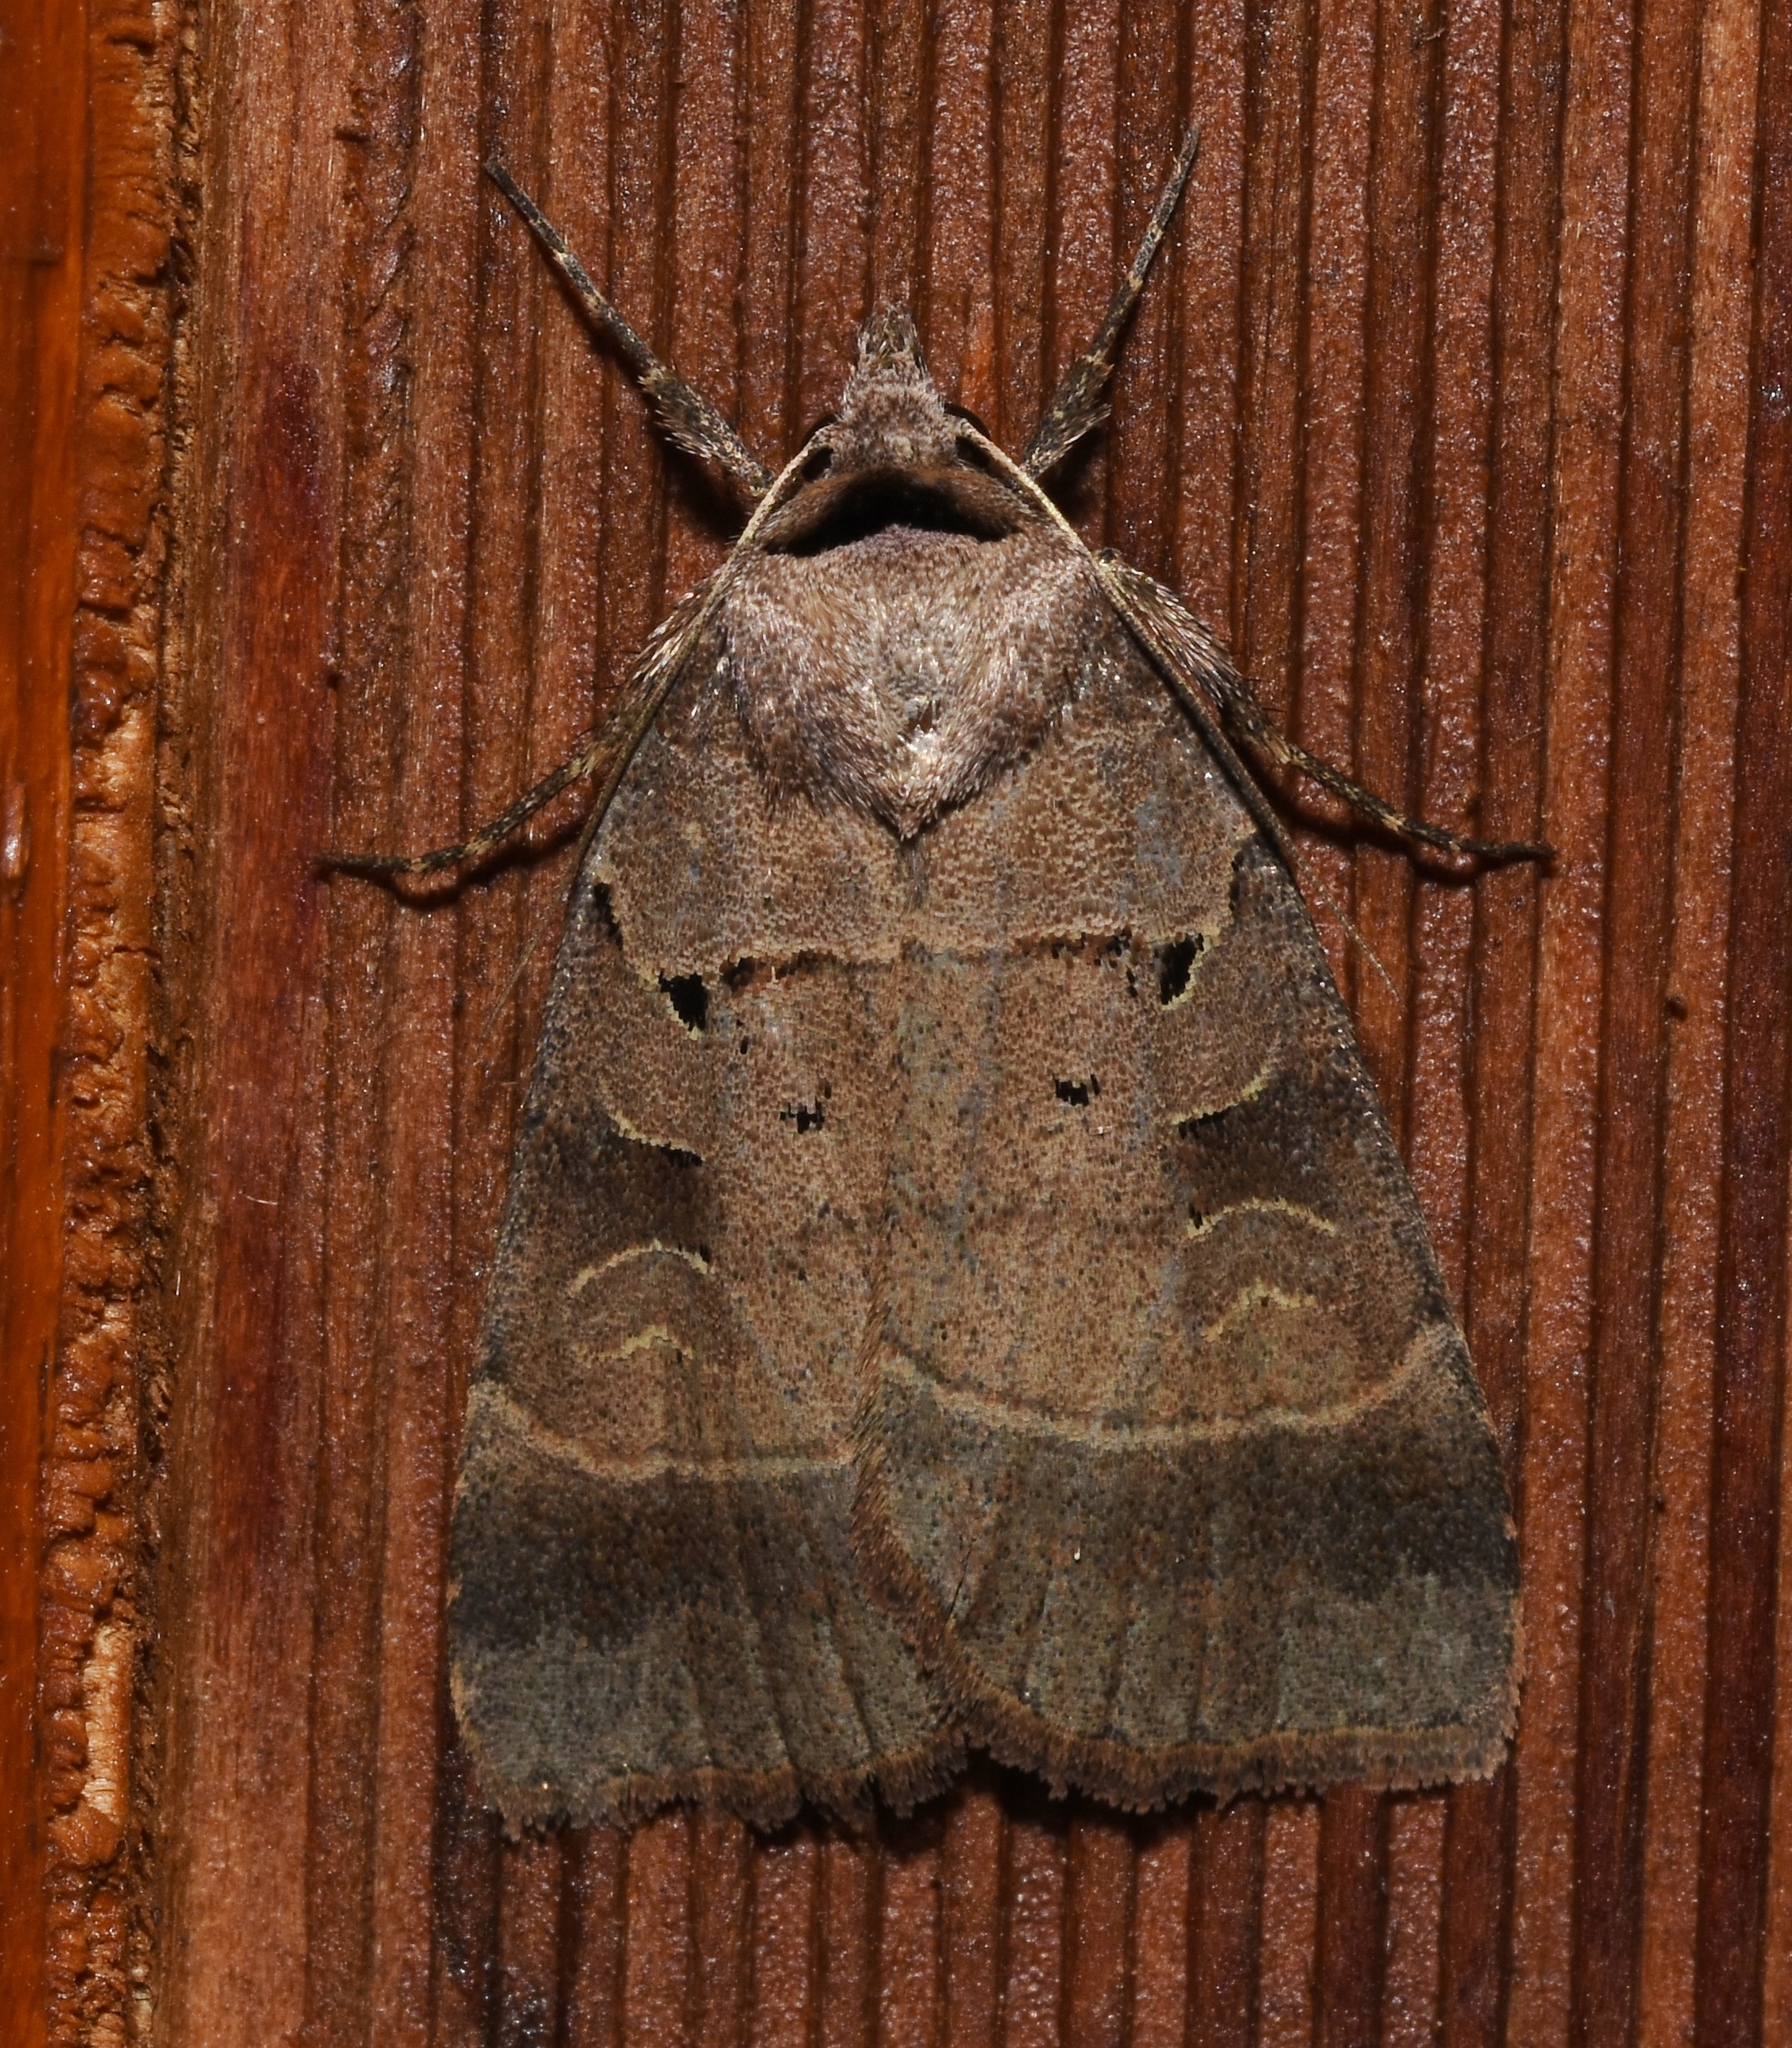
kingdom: Animalia
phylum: Arthropoda
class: Insecta
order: Lepidoptera
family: Noctuidae
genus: Agnorisma
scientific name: Agnorisma badinodis
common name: Pale-banded dart
